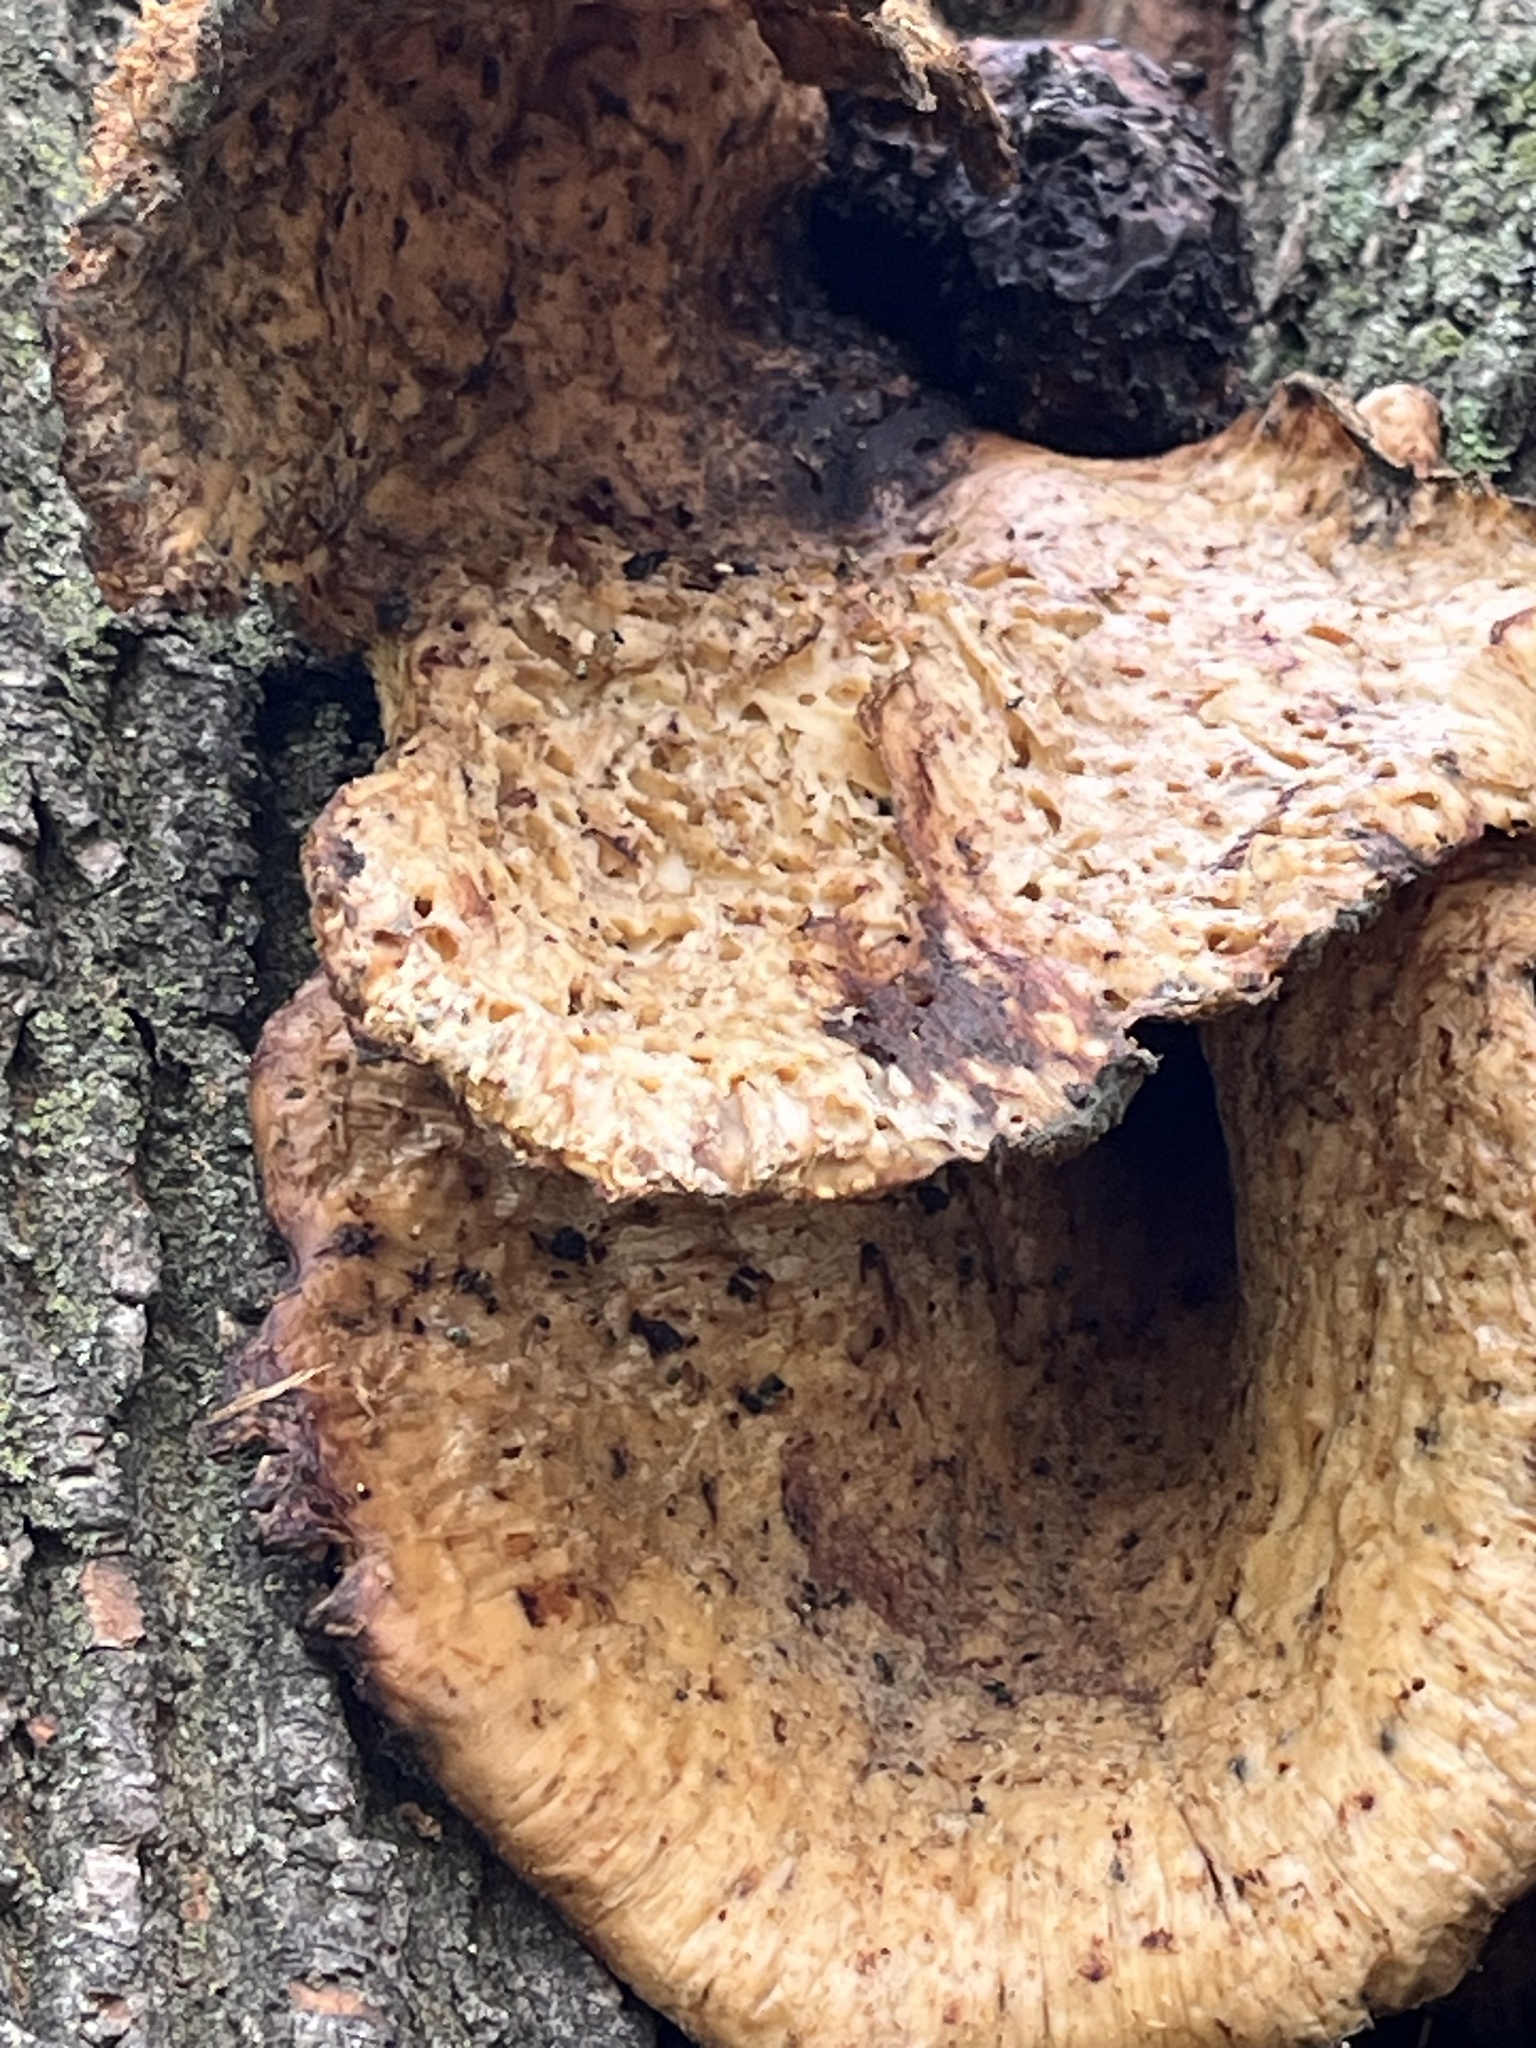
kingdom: Fungi
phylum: Basidiomycota
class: Agaricomycetes
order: Polyporales
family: Polyporaceae
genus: Cerioporus
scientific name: Cerioporus squamosus
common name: Dryad's saddle
